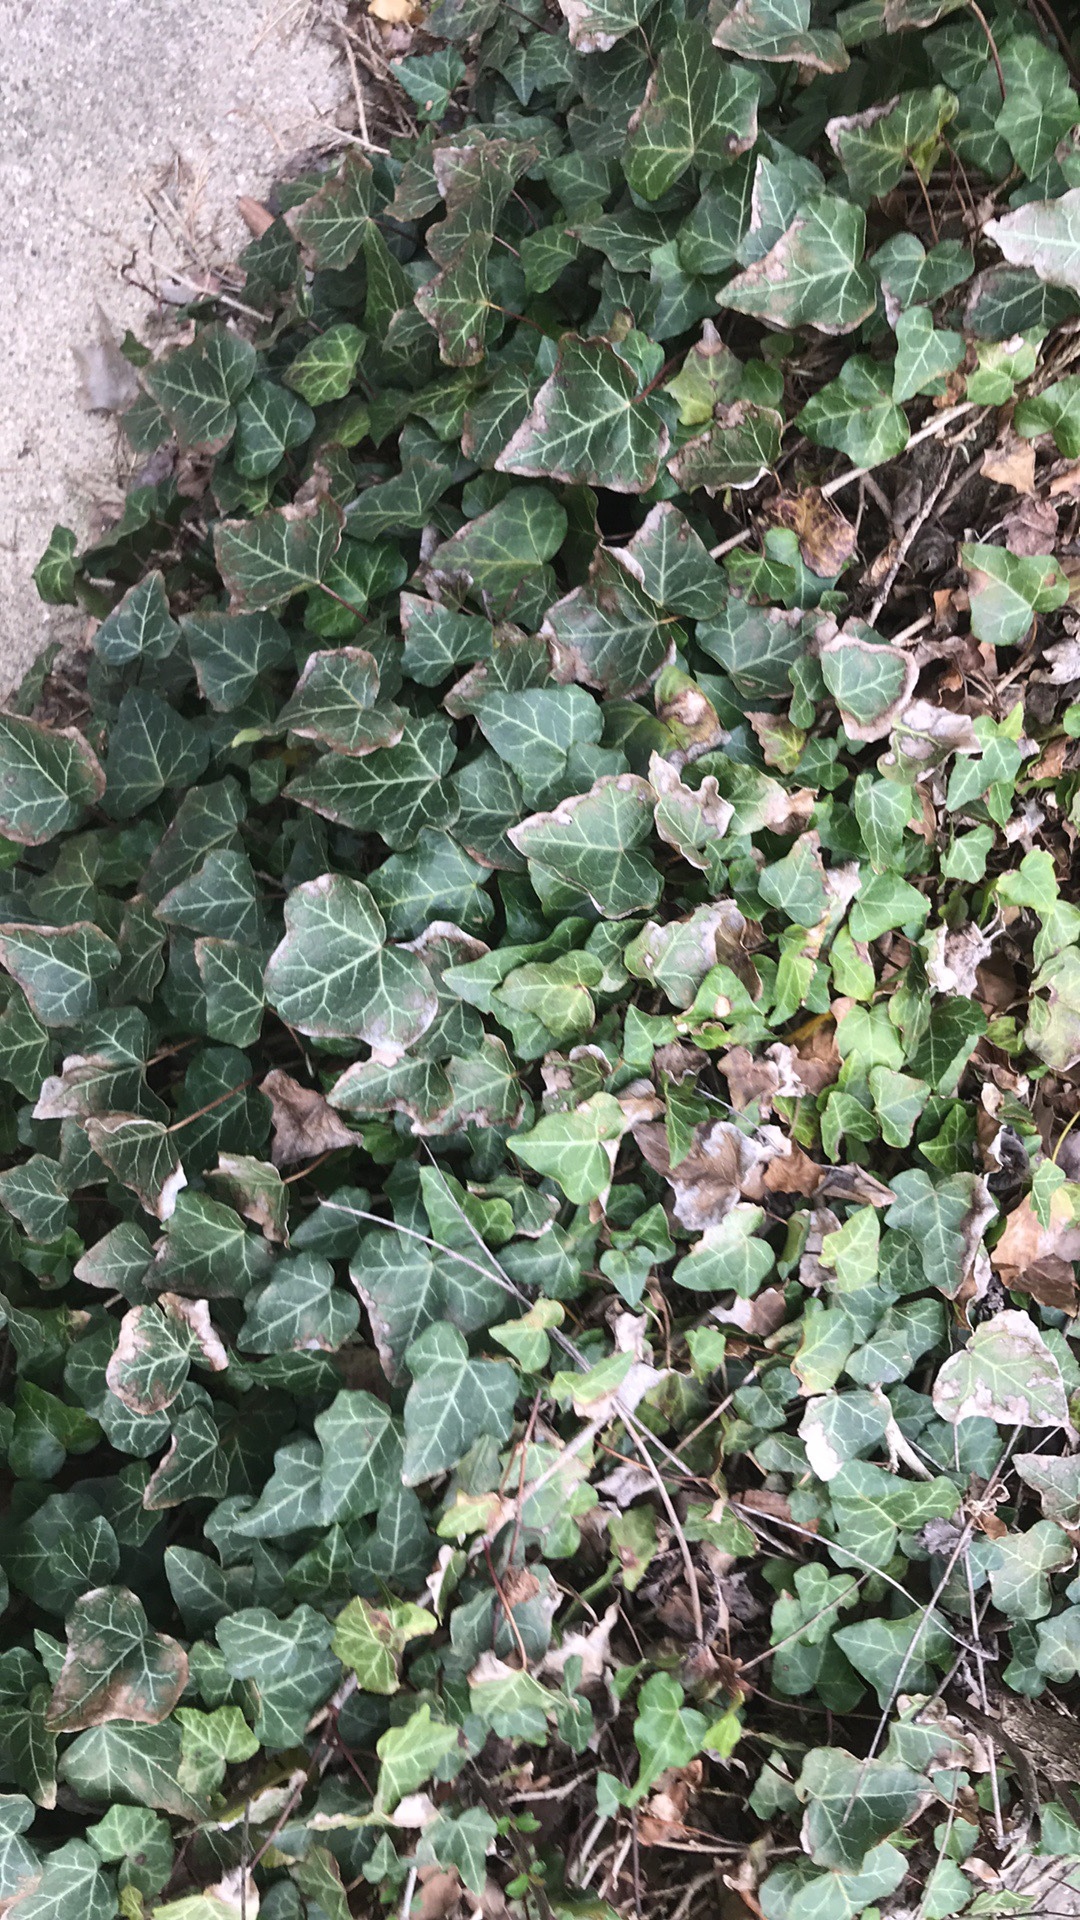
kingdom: Plantae
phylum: Tracheophyta
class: Magnoliopsida
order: Apiales
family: Araliaceae
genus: Hedera
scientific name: Hedera helix
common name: Ivy
